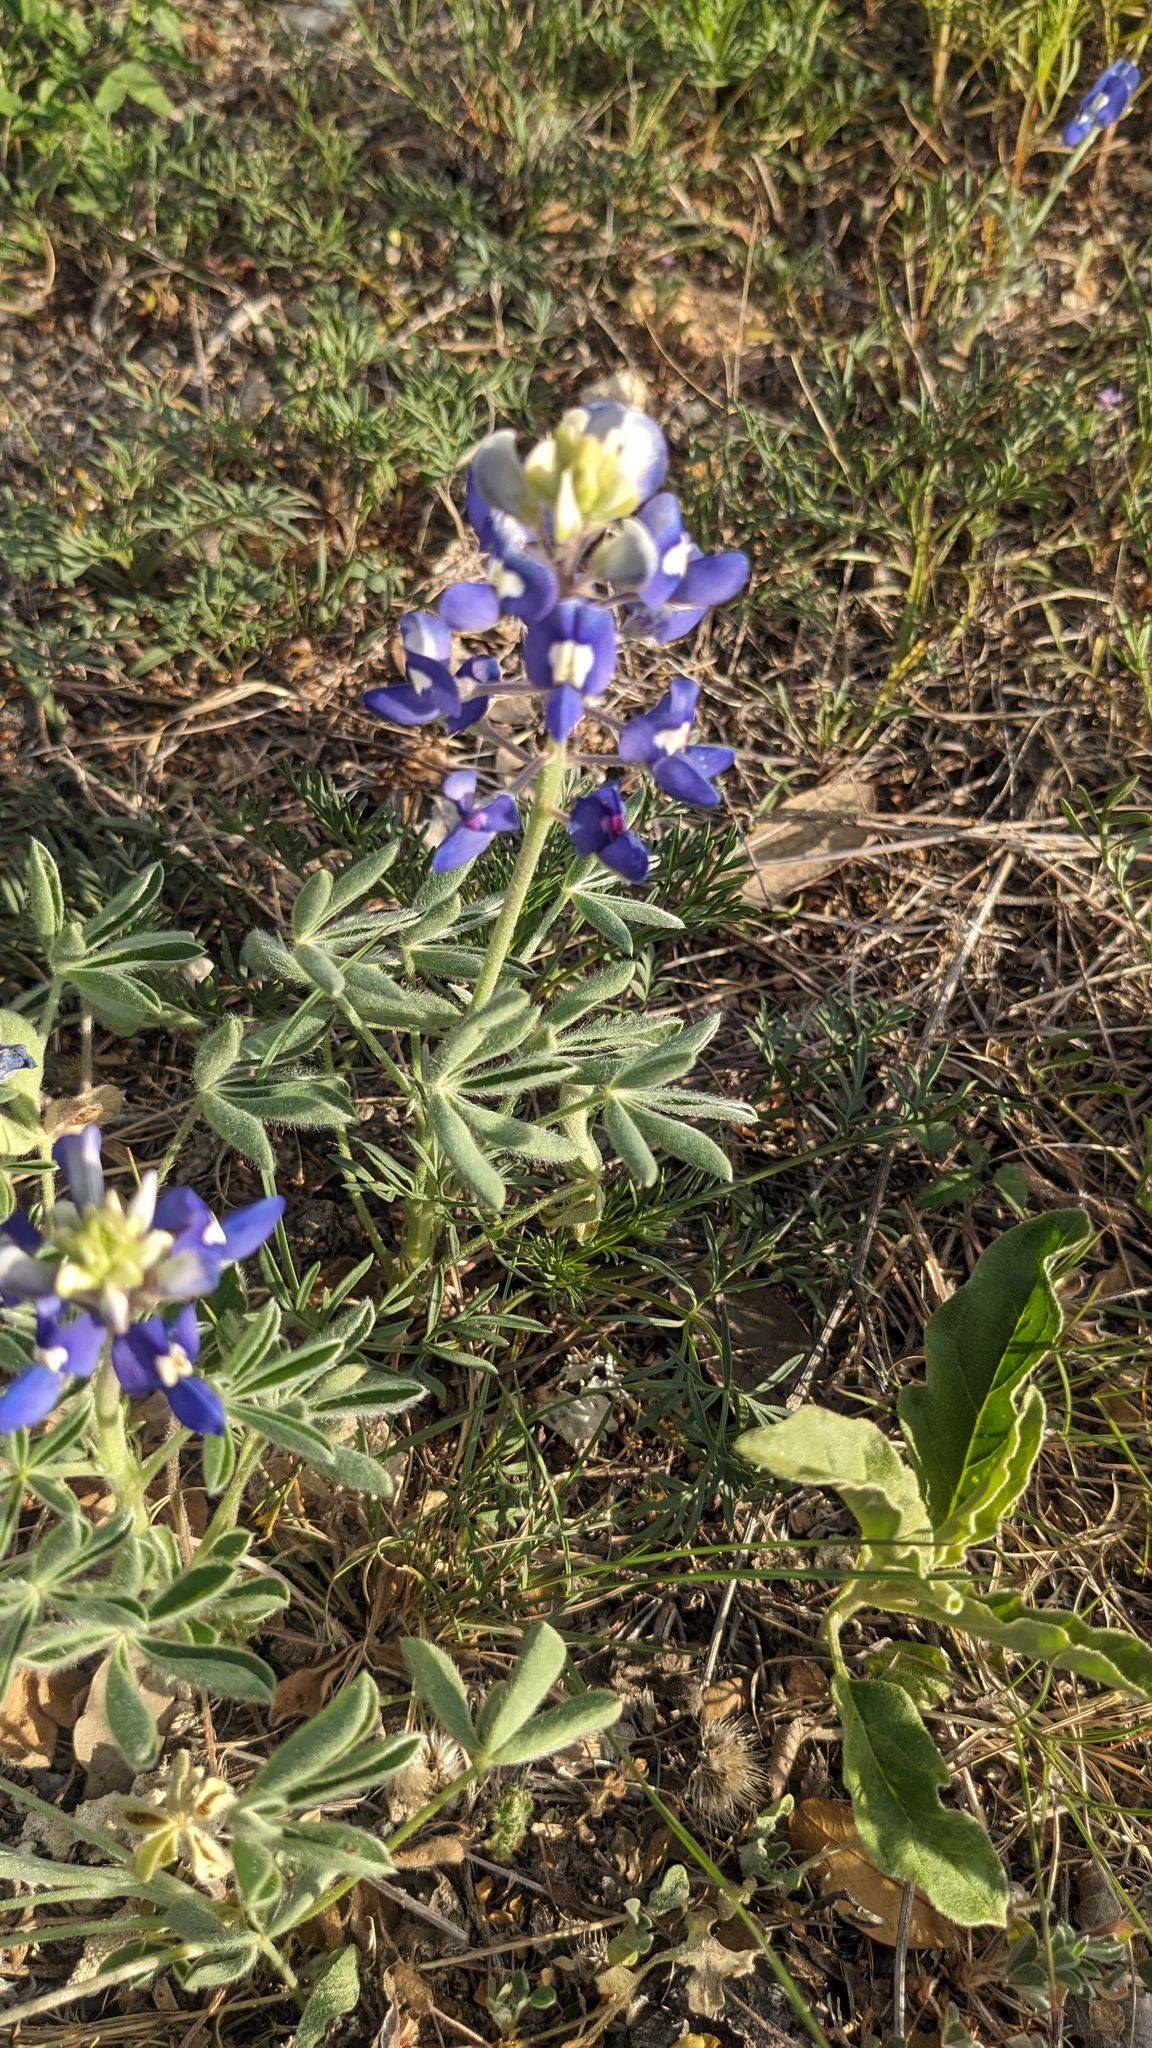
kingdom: Plantae
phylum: Tracheophyta
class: Magnoliopsida
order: Fabales
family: Fabaceae
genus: Lupinus
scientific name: Lupinus texensis
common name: Texas bluebonnet
